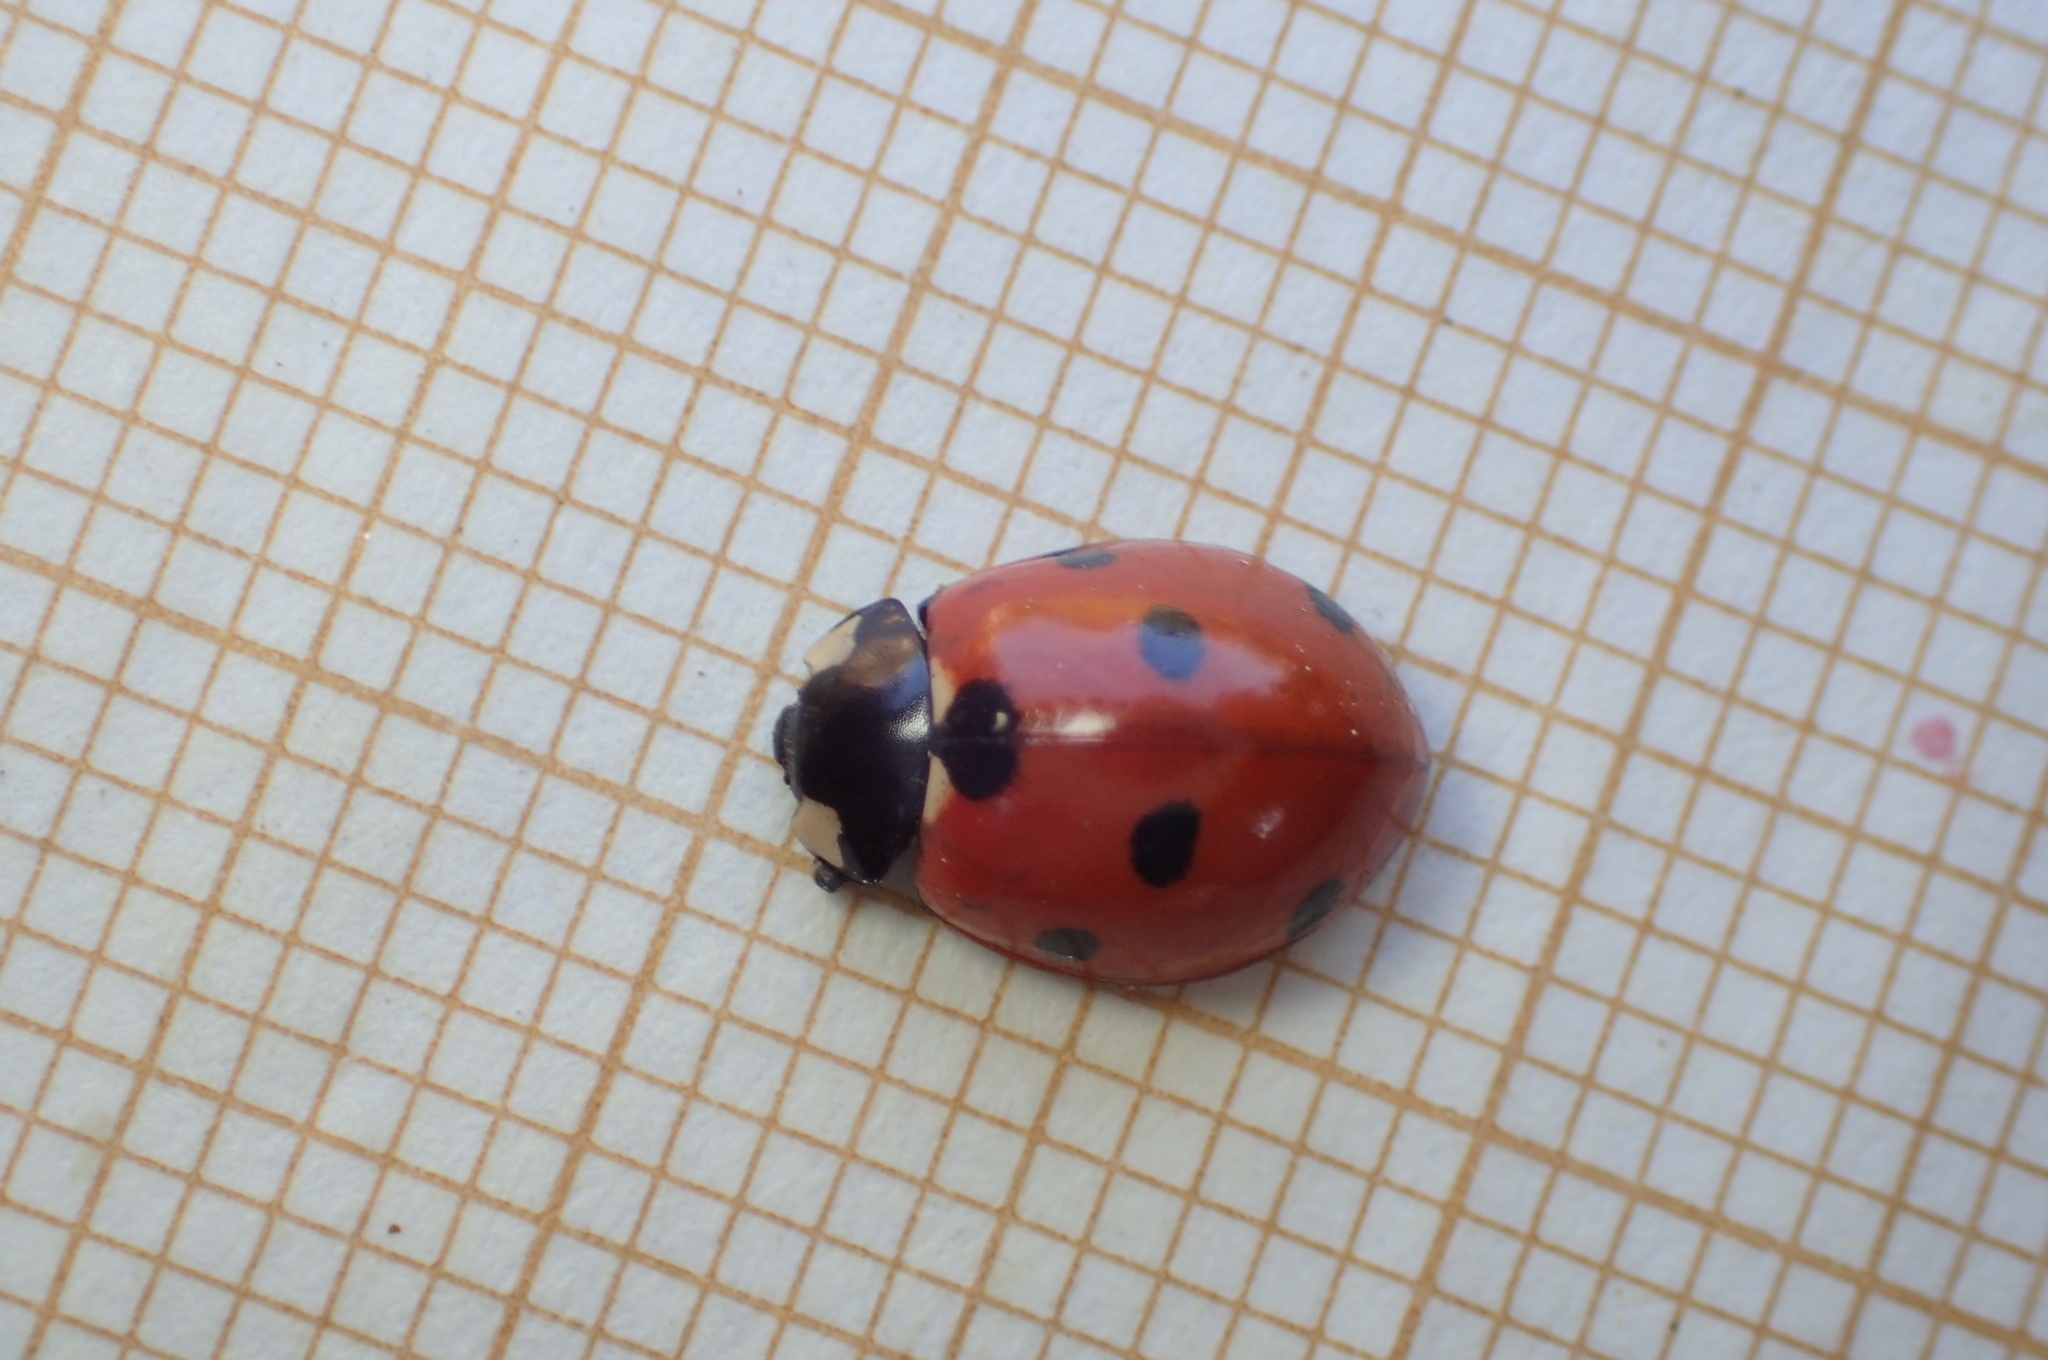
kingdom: Animalia
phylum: Arthropoda
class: Insecta
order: Coleoptera
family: Coccinellidae
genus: Coccinella
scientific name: Coccinella septempunctata
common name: Sevenspotted lady beetle
